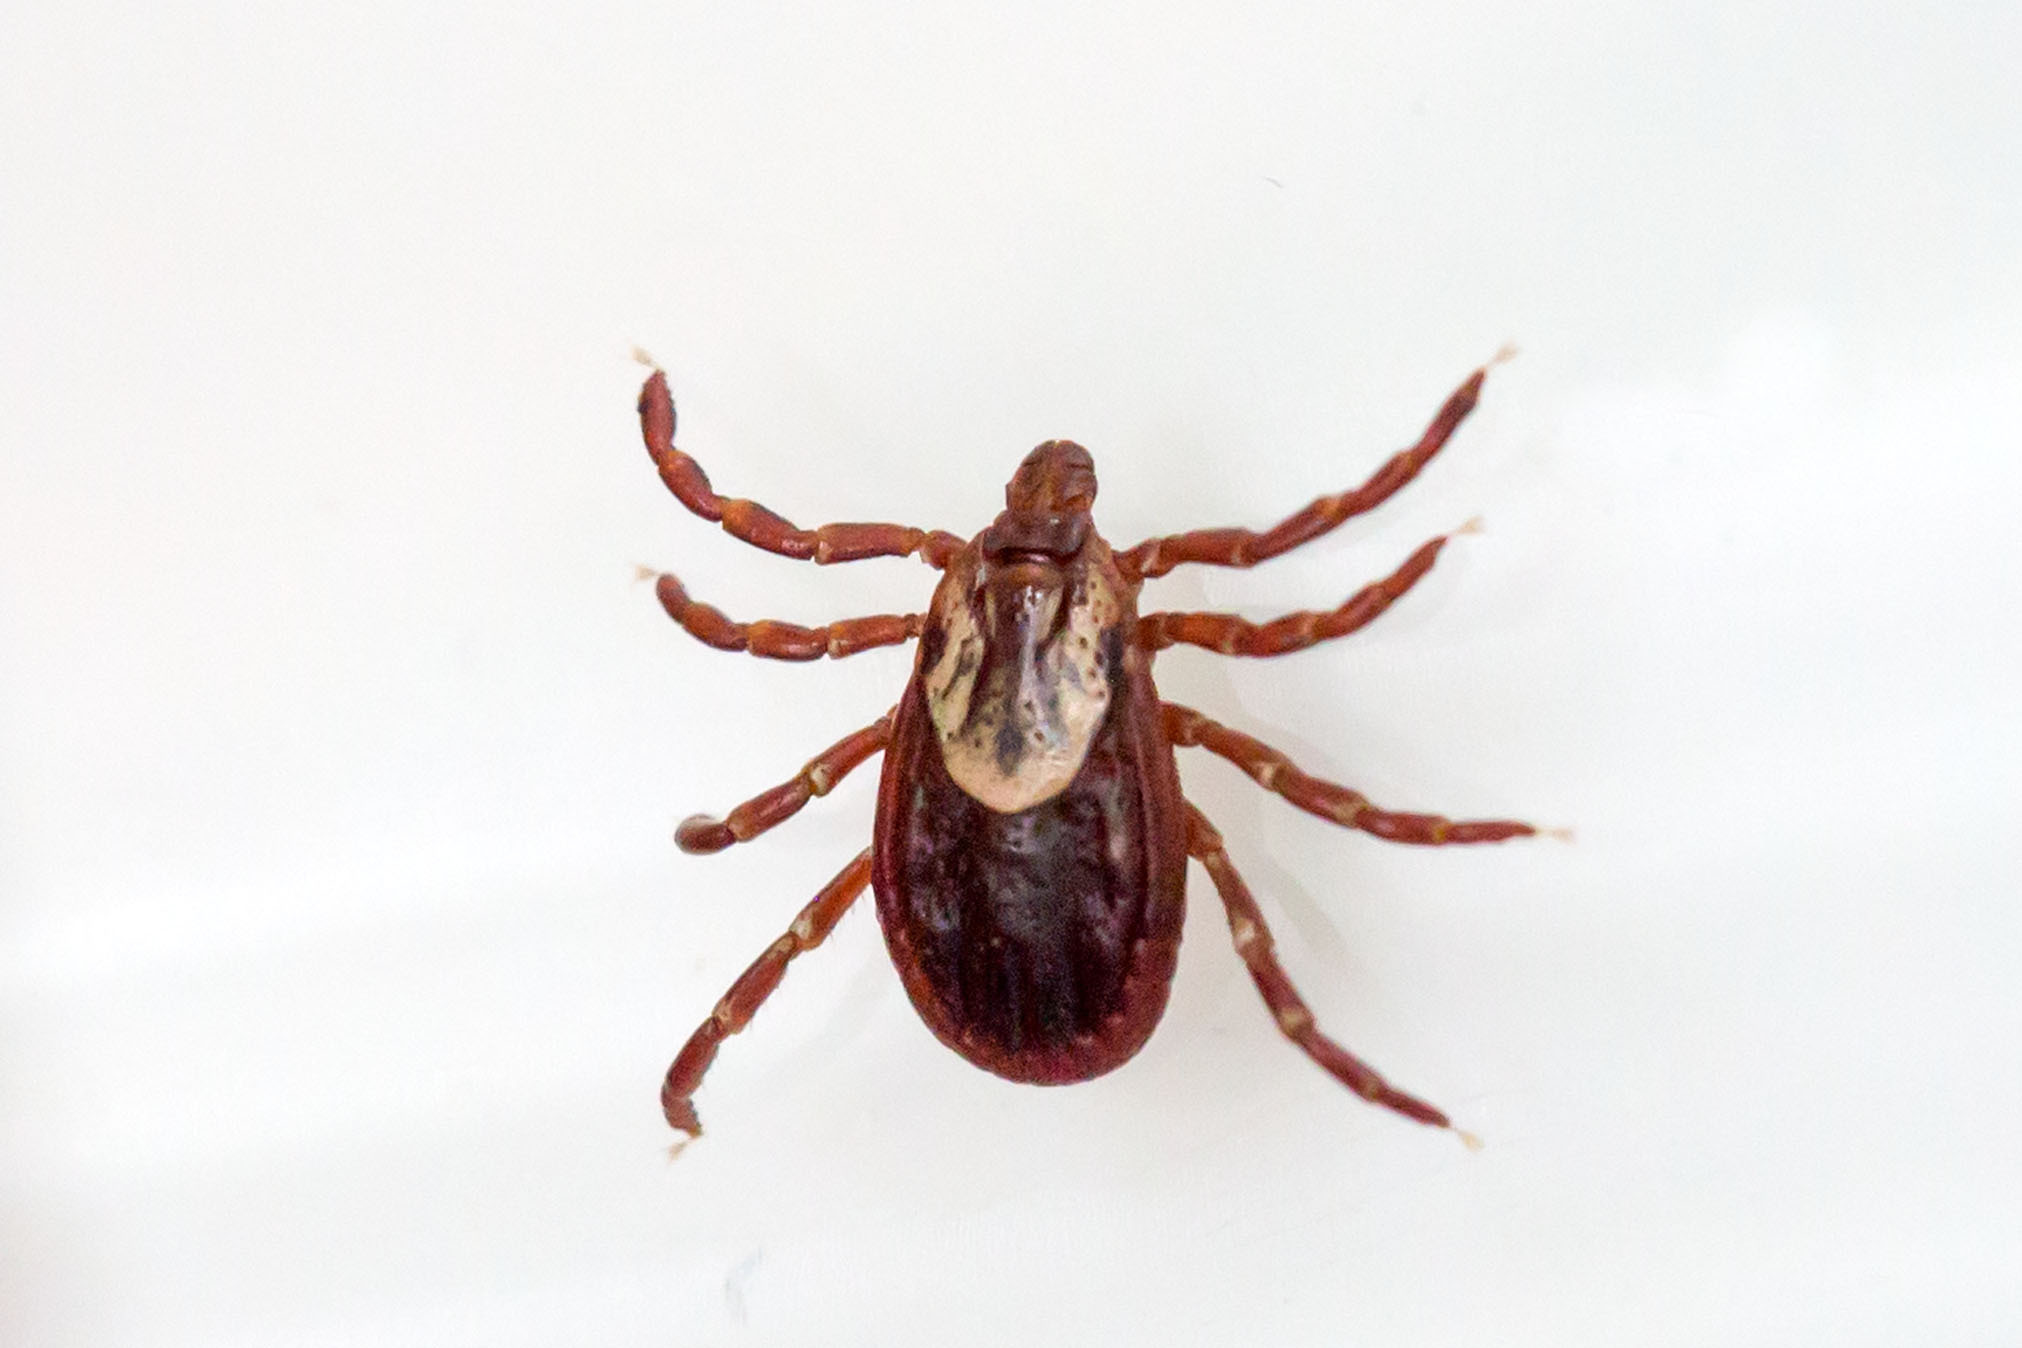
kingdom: Animalia
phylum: Arthropoda
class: Arachnida
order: Ixodida
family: Ixodidae
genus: Dermacentor
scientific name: Dermacentor variabilis
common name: American dog tick
